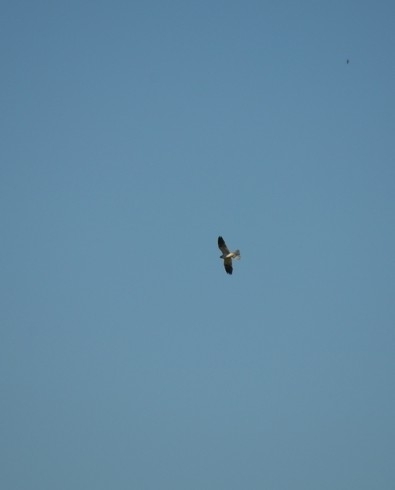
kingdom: Animalia
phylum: Chordata
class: Aves
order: Accipitriformes
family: Accipitridae
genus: Elanus
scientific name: Elanus leucurus
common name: White-tailed kite
